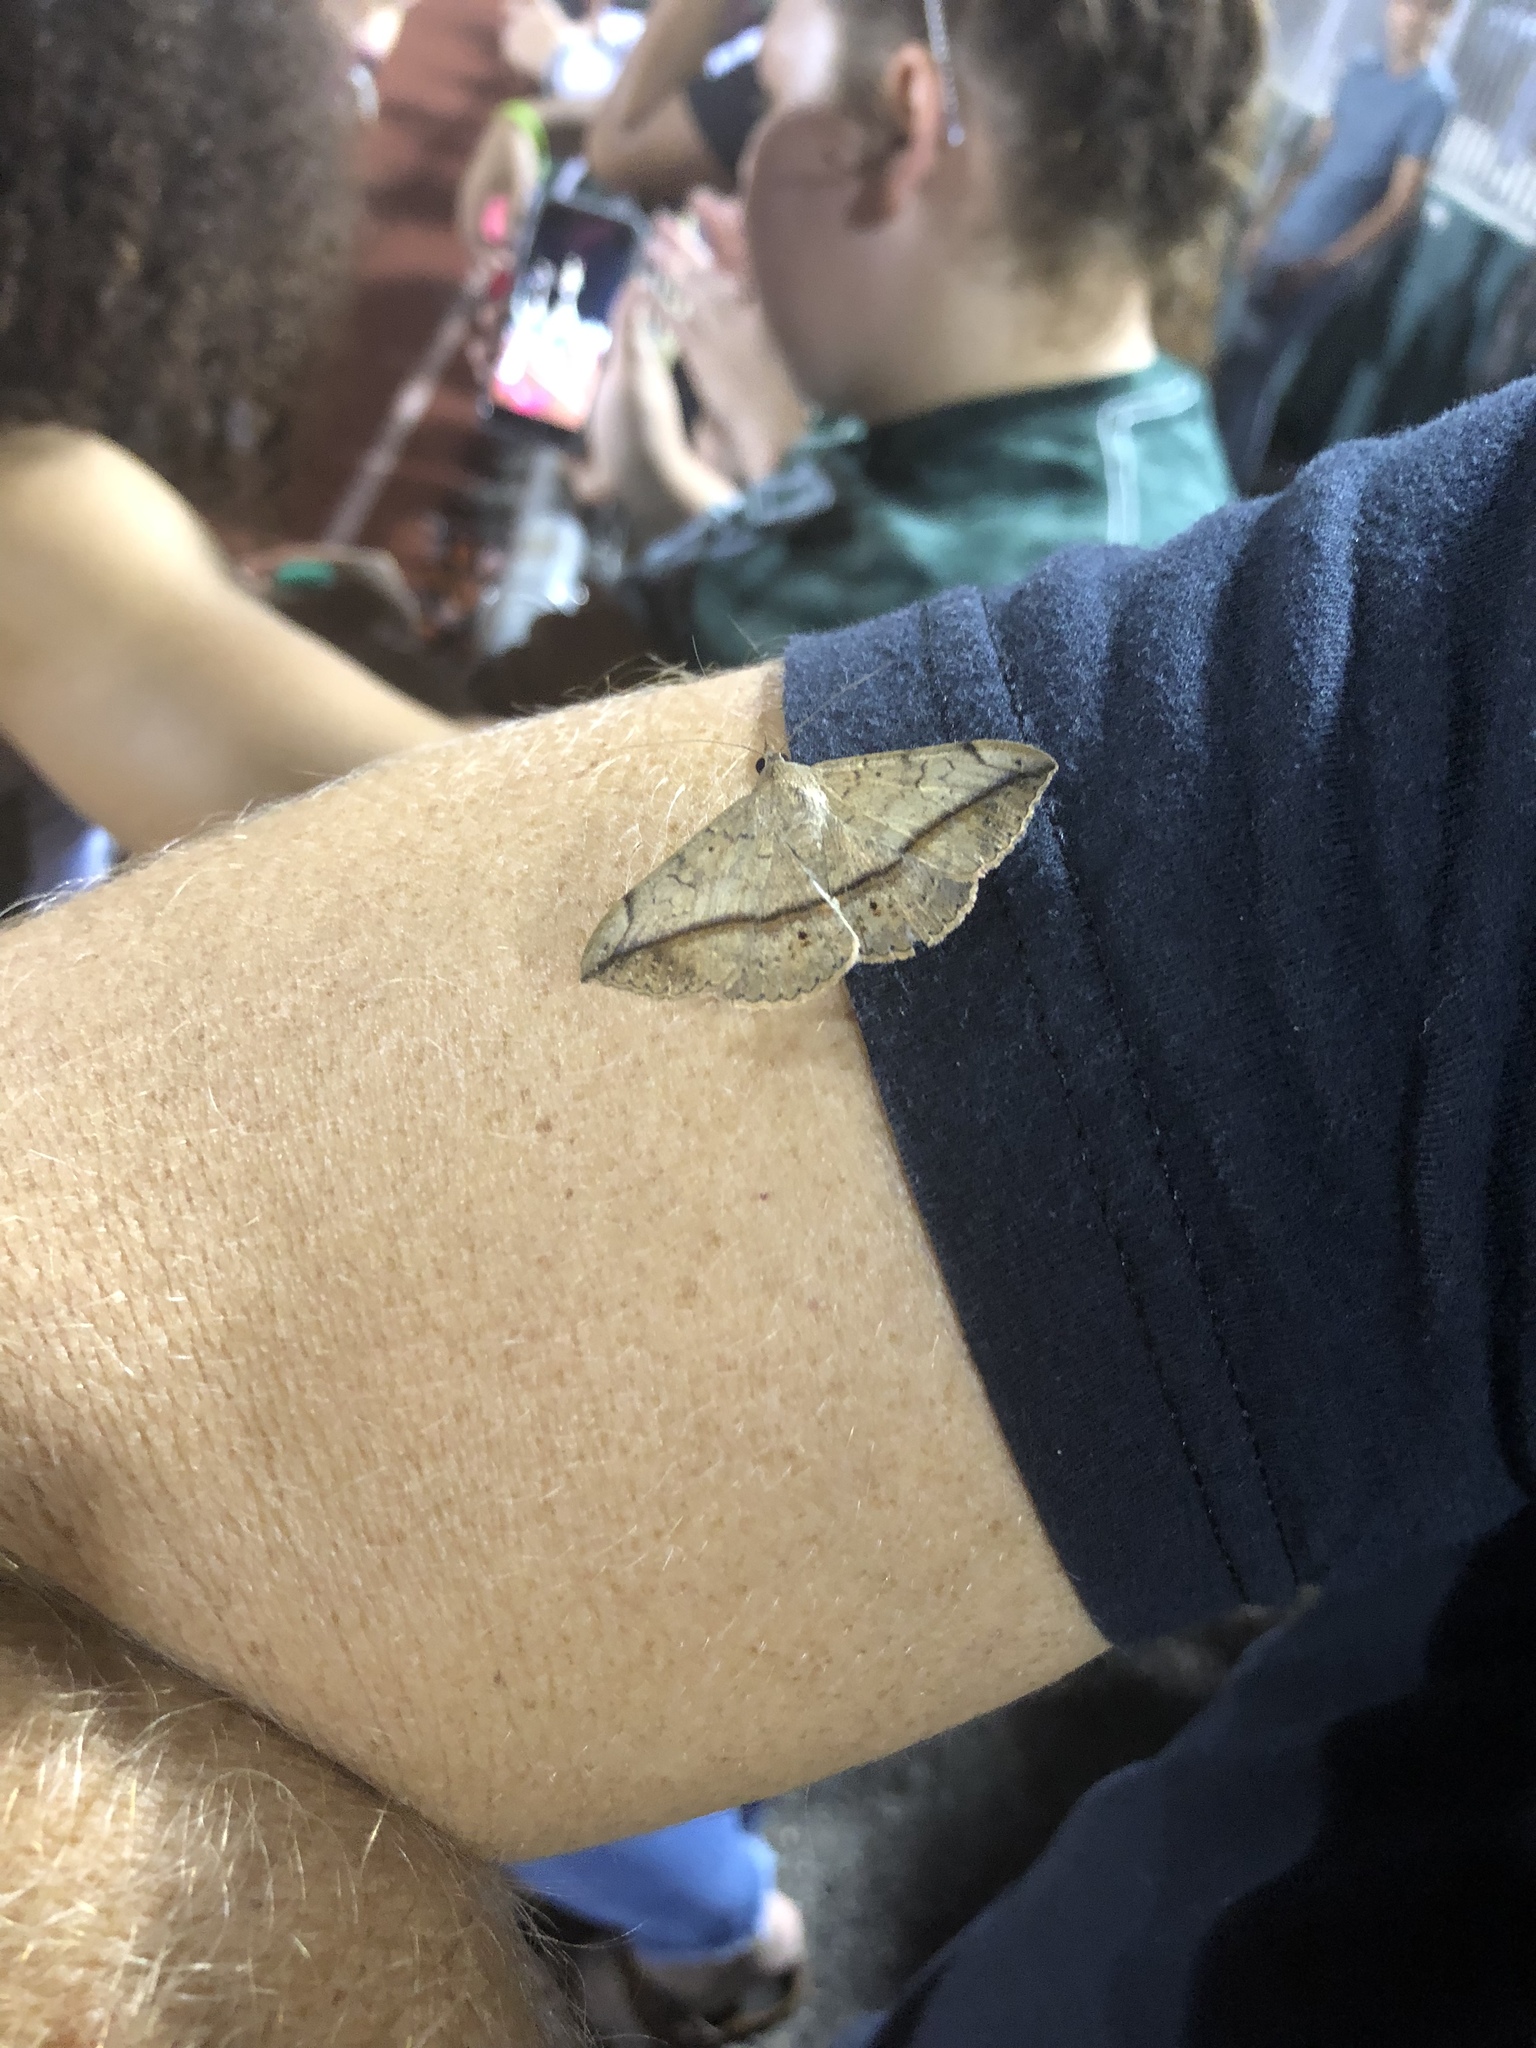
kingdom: Animalia
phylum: Arthropoda
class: Insecta
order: Lepidoptera
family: Erebidae
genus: Anticarsia
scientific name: Anticarsia gemmatalis
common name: Cutworm moth
